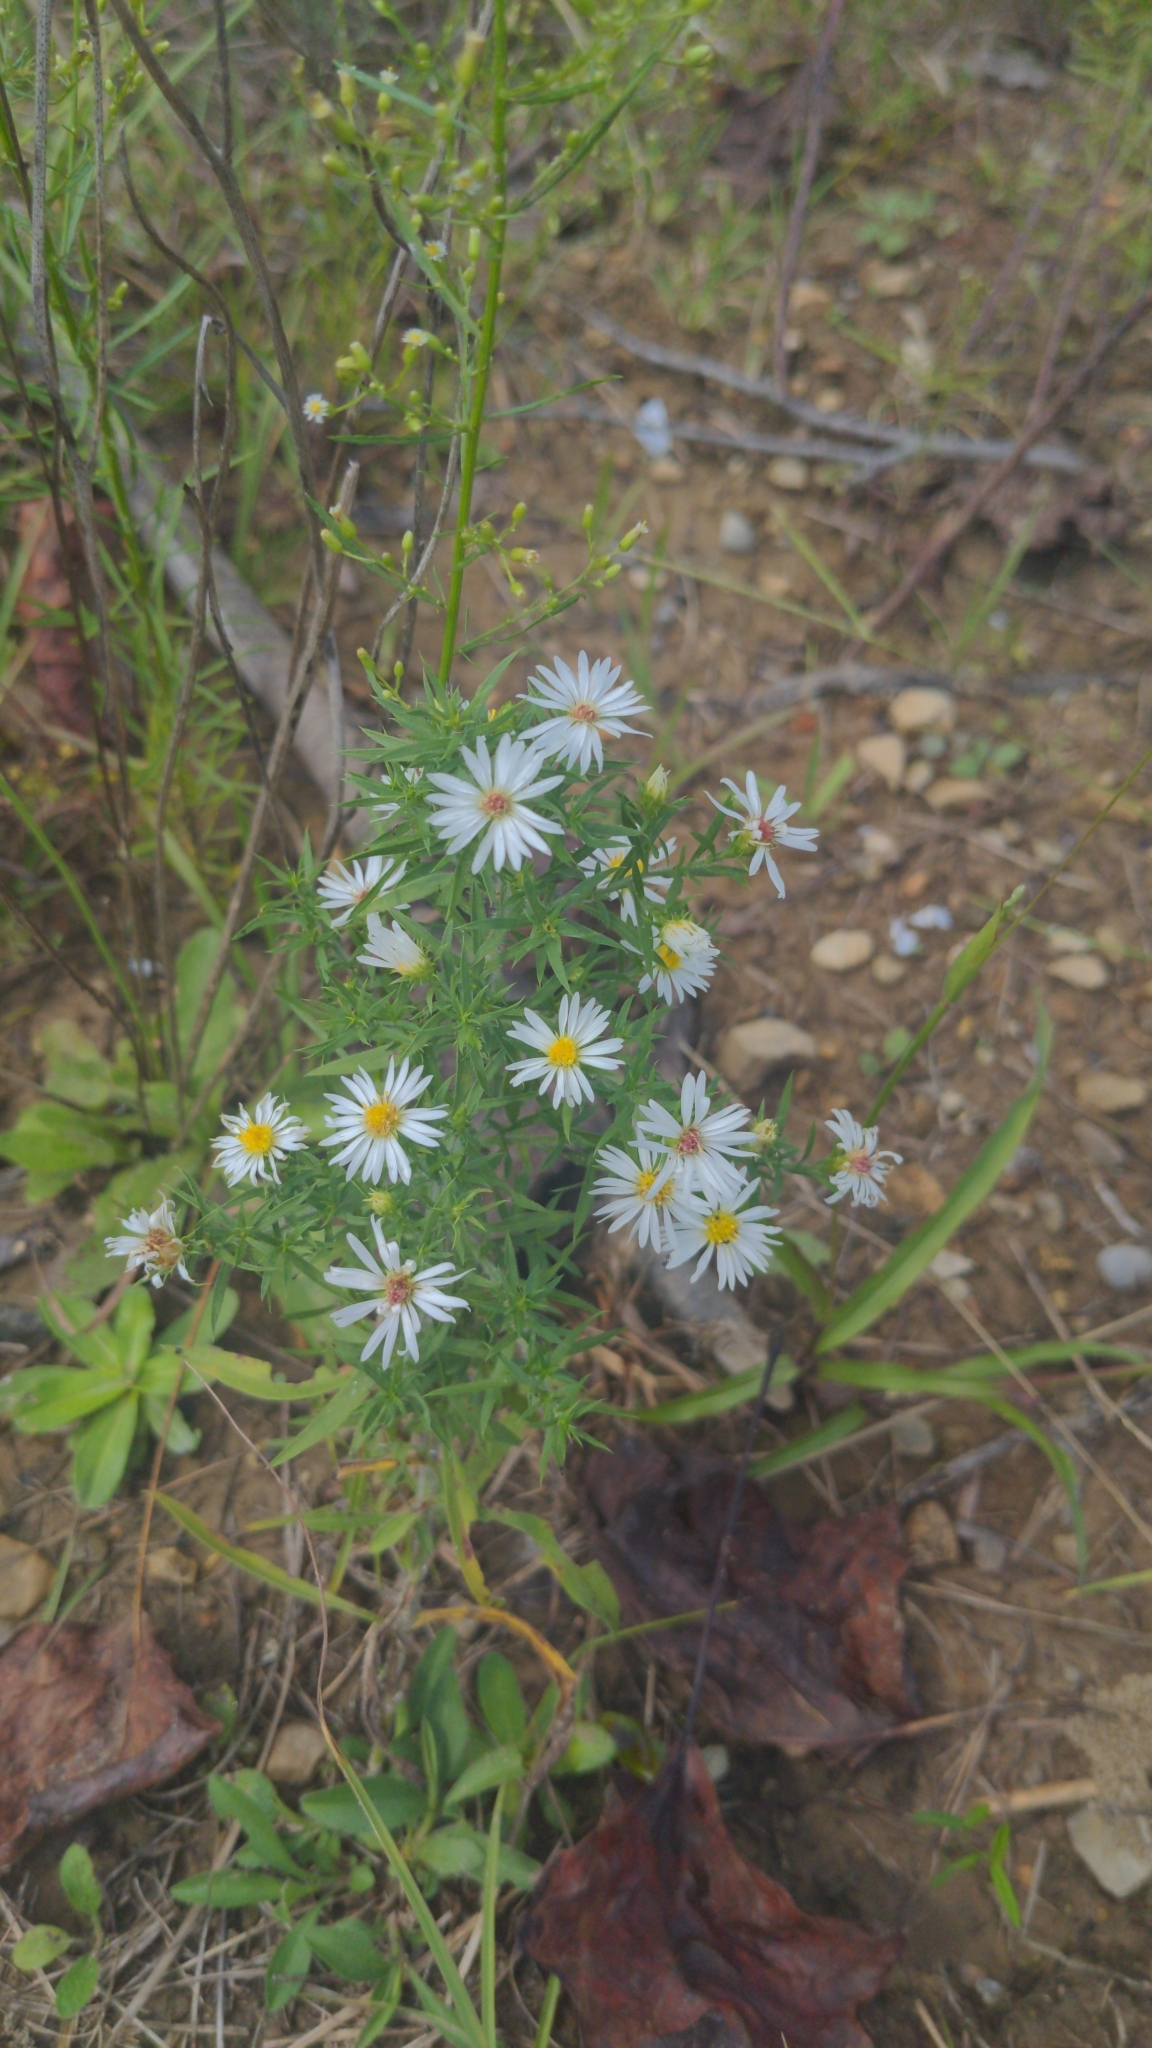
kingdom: Plantae
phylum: Tracheophyta
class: Magnoliopsida
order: Asterales
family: Asteraceae
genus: Symphyotrichum
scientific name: Symphyotrichum pilosum
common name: Awl aster
